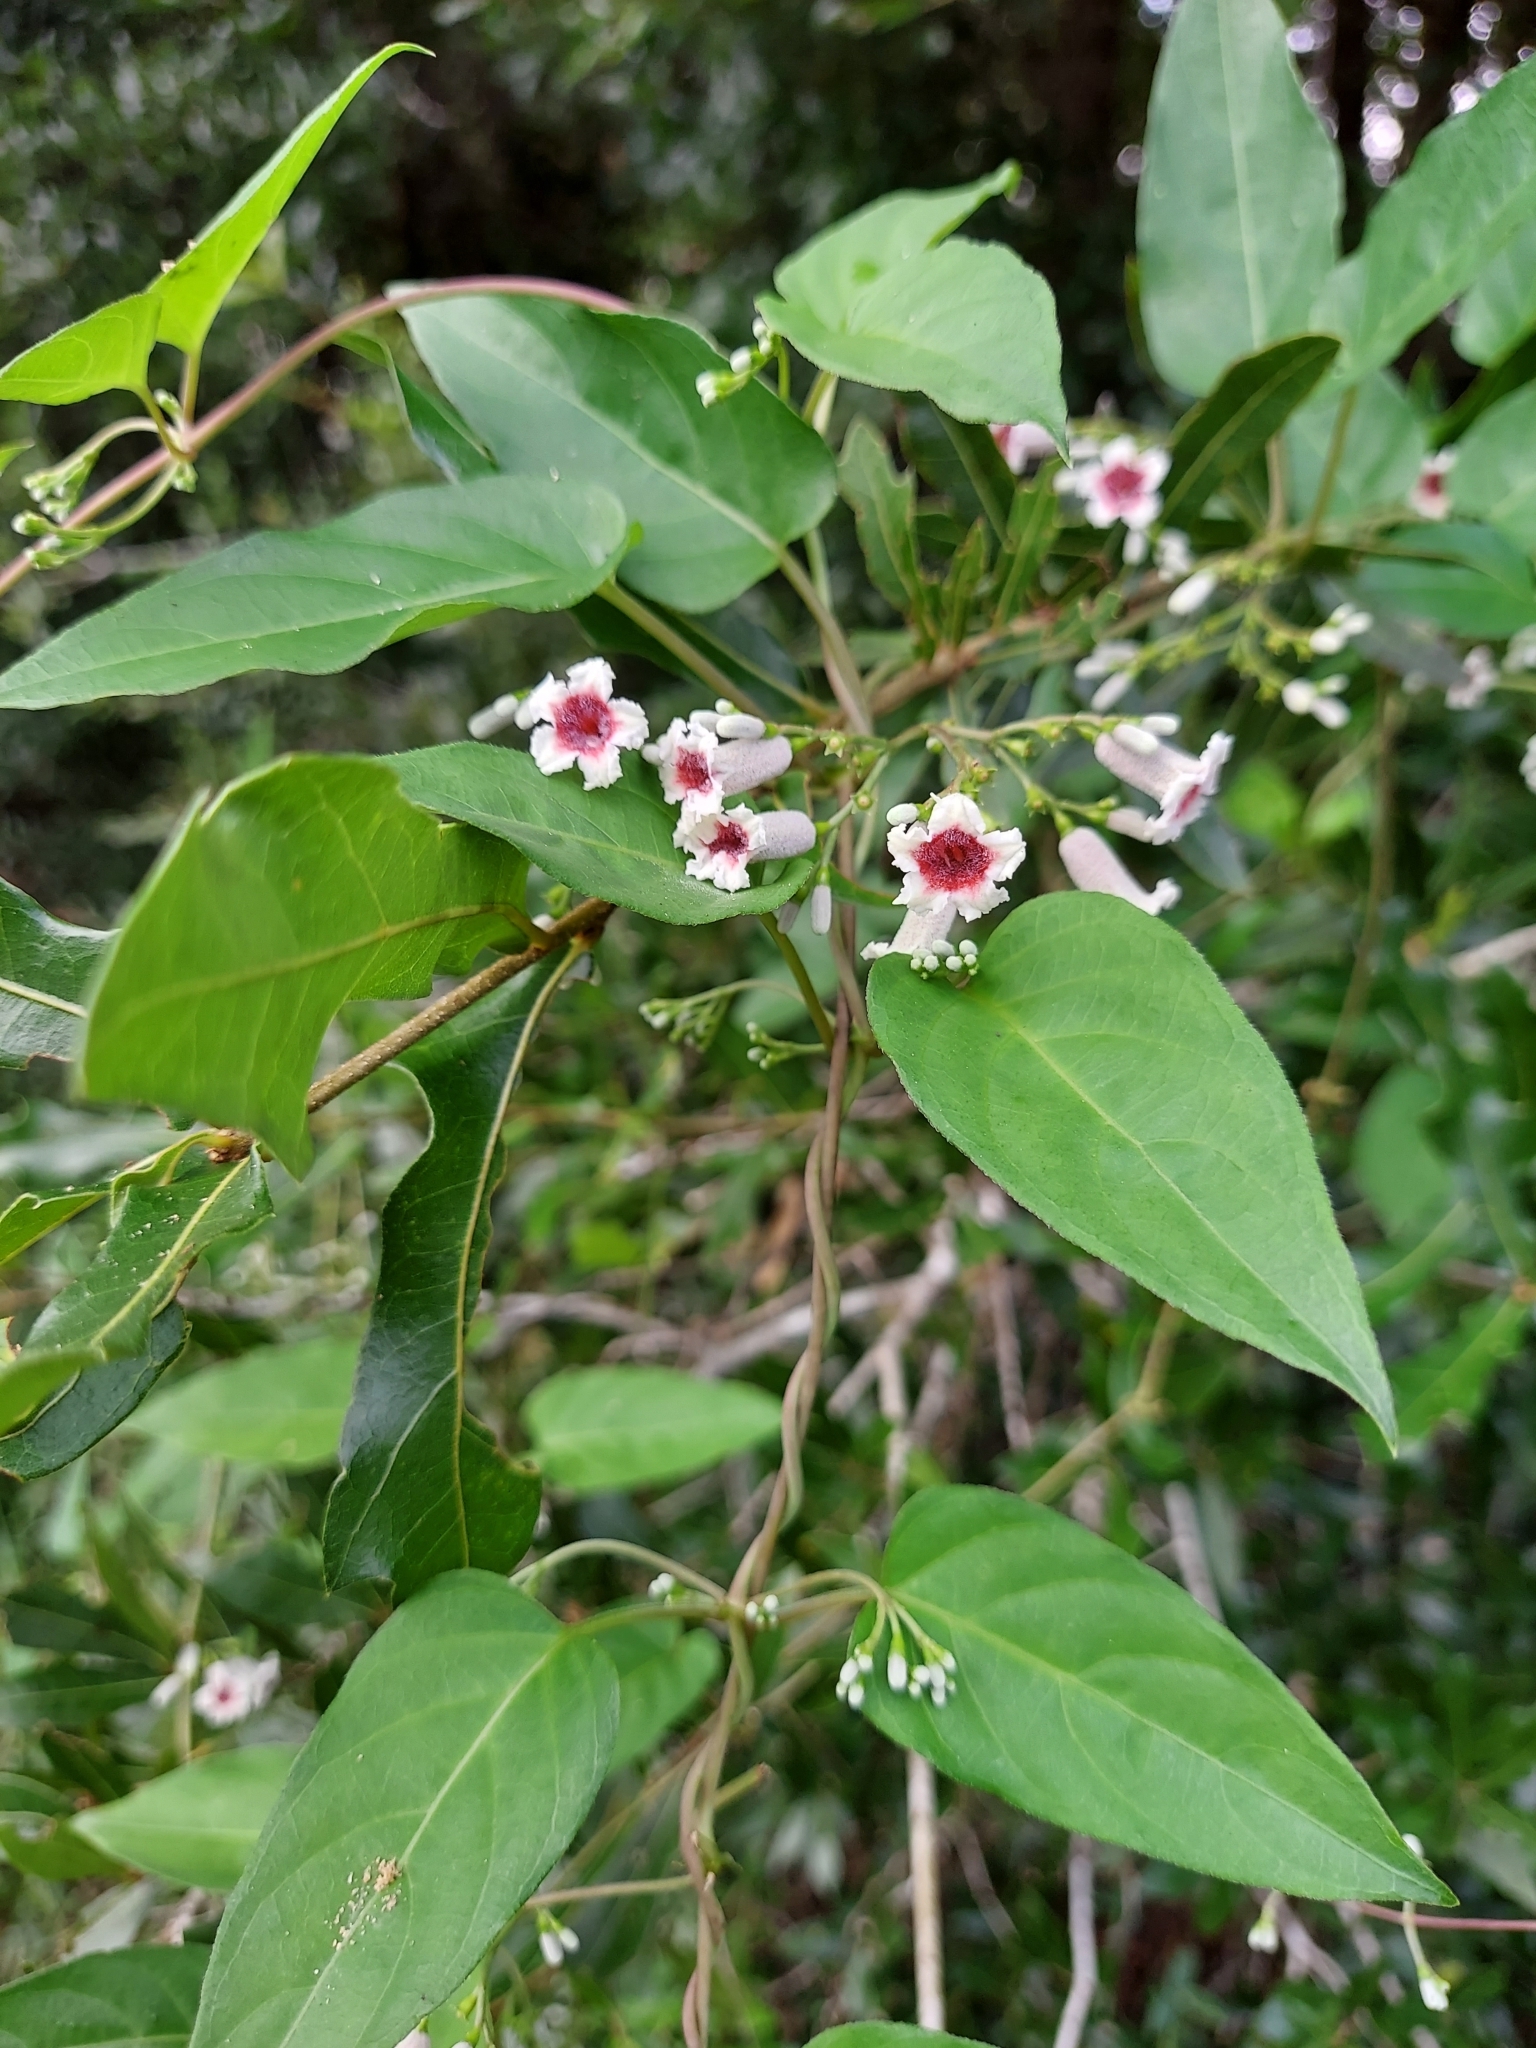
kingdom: Plantae
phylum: Tracheophyta
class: Magnoliopsida
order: Gentianales
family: Rubiaceae
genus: Paederia
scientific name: Paederia foetida
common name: Stinkvine
